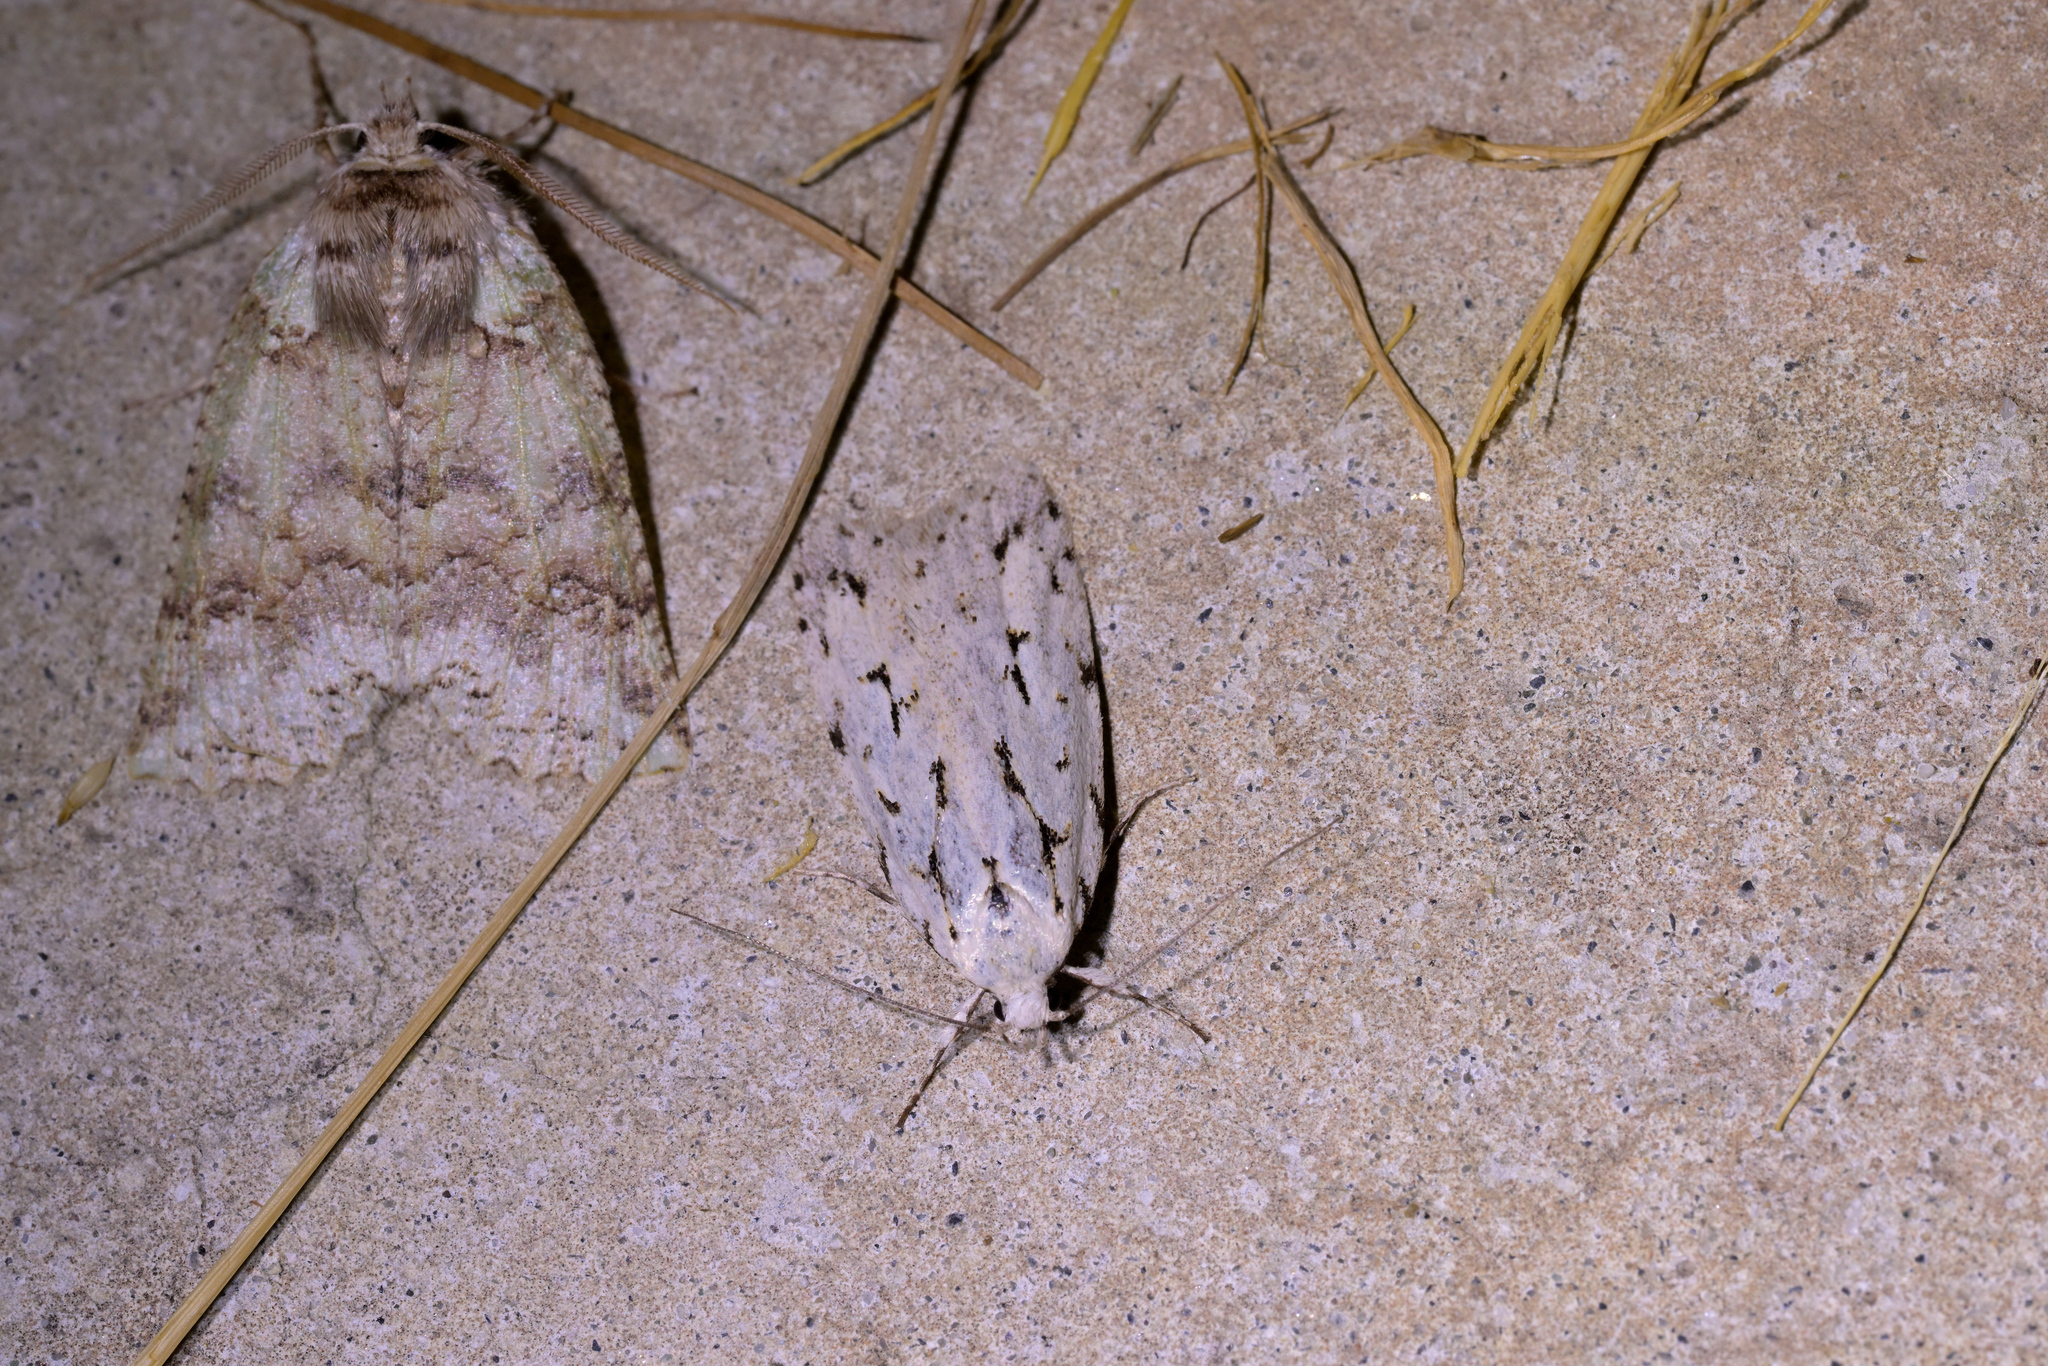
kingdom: Animalia
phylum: Arthropoda
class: Insecta
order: Lepidoptera
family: Oecophoridae
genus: Izatha
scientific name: Izatha heroica
